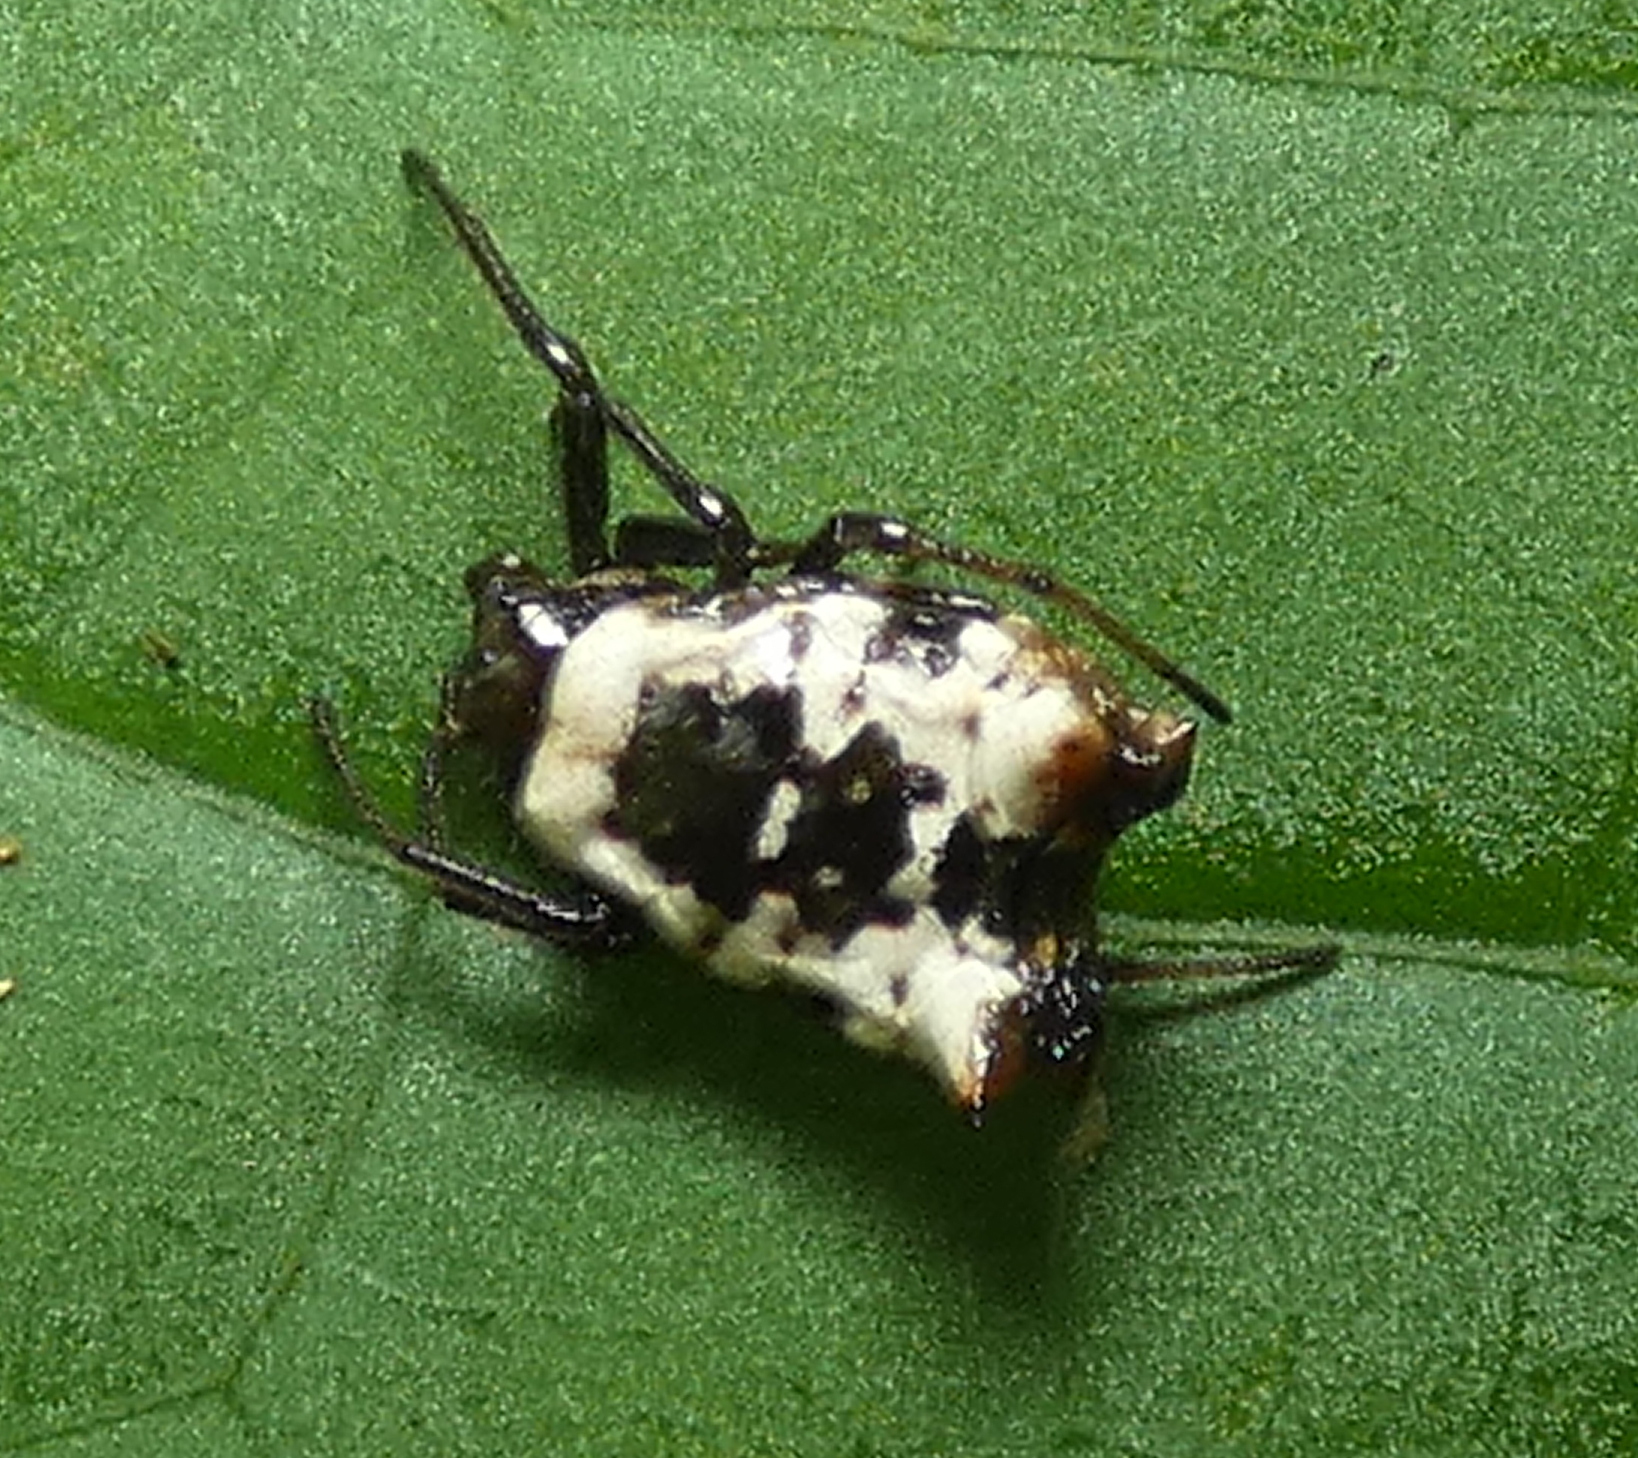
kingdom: Animalia
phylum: Arthropoda
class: Arachnida
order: Araneae
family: Araneidae
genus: Micrathena
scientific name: Micrathena patruelis
